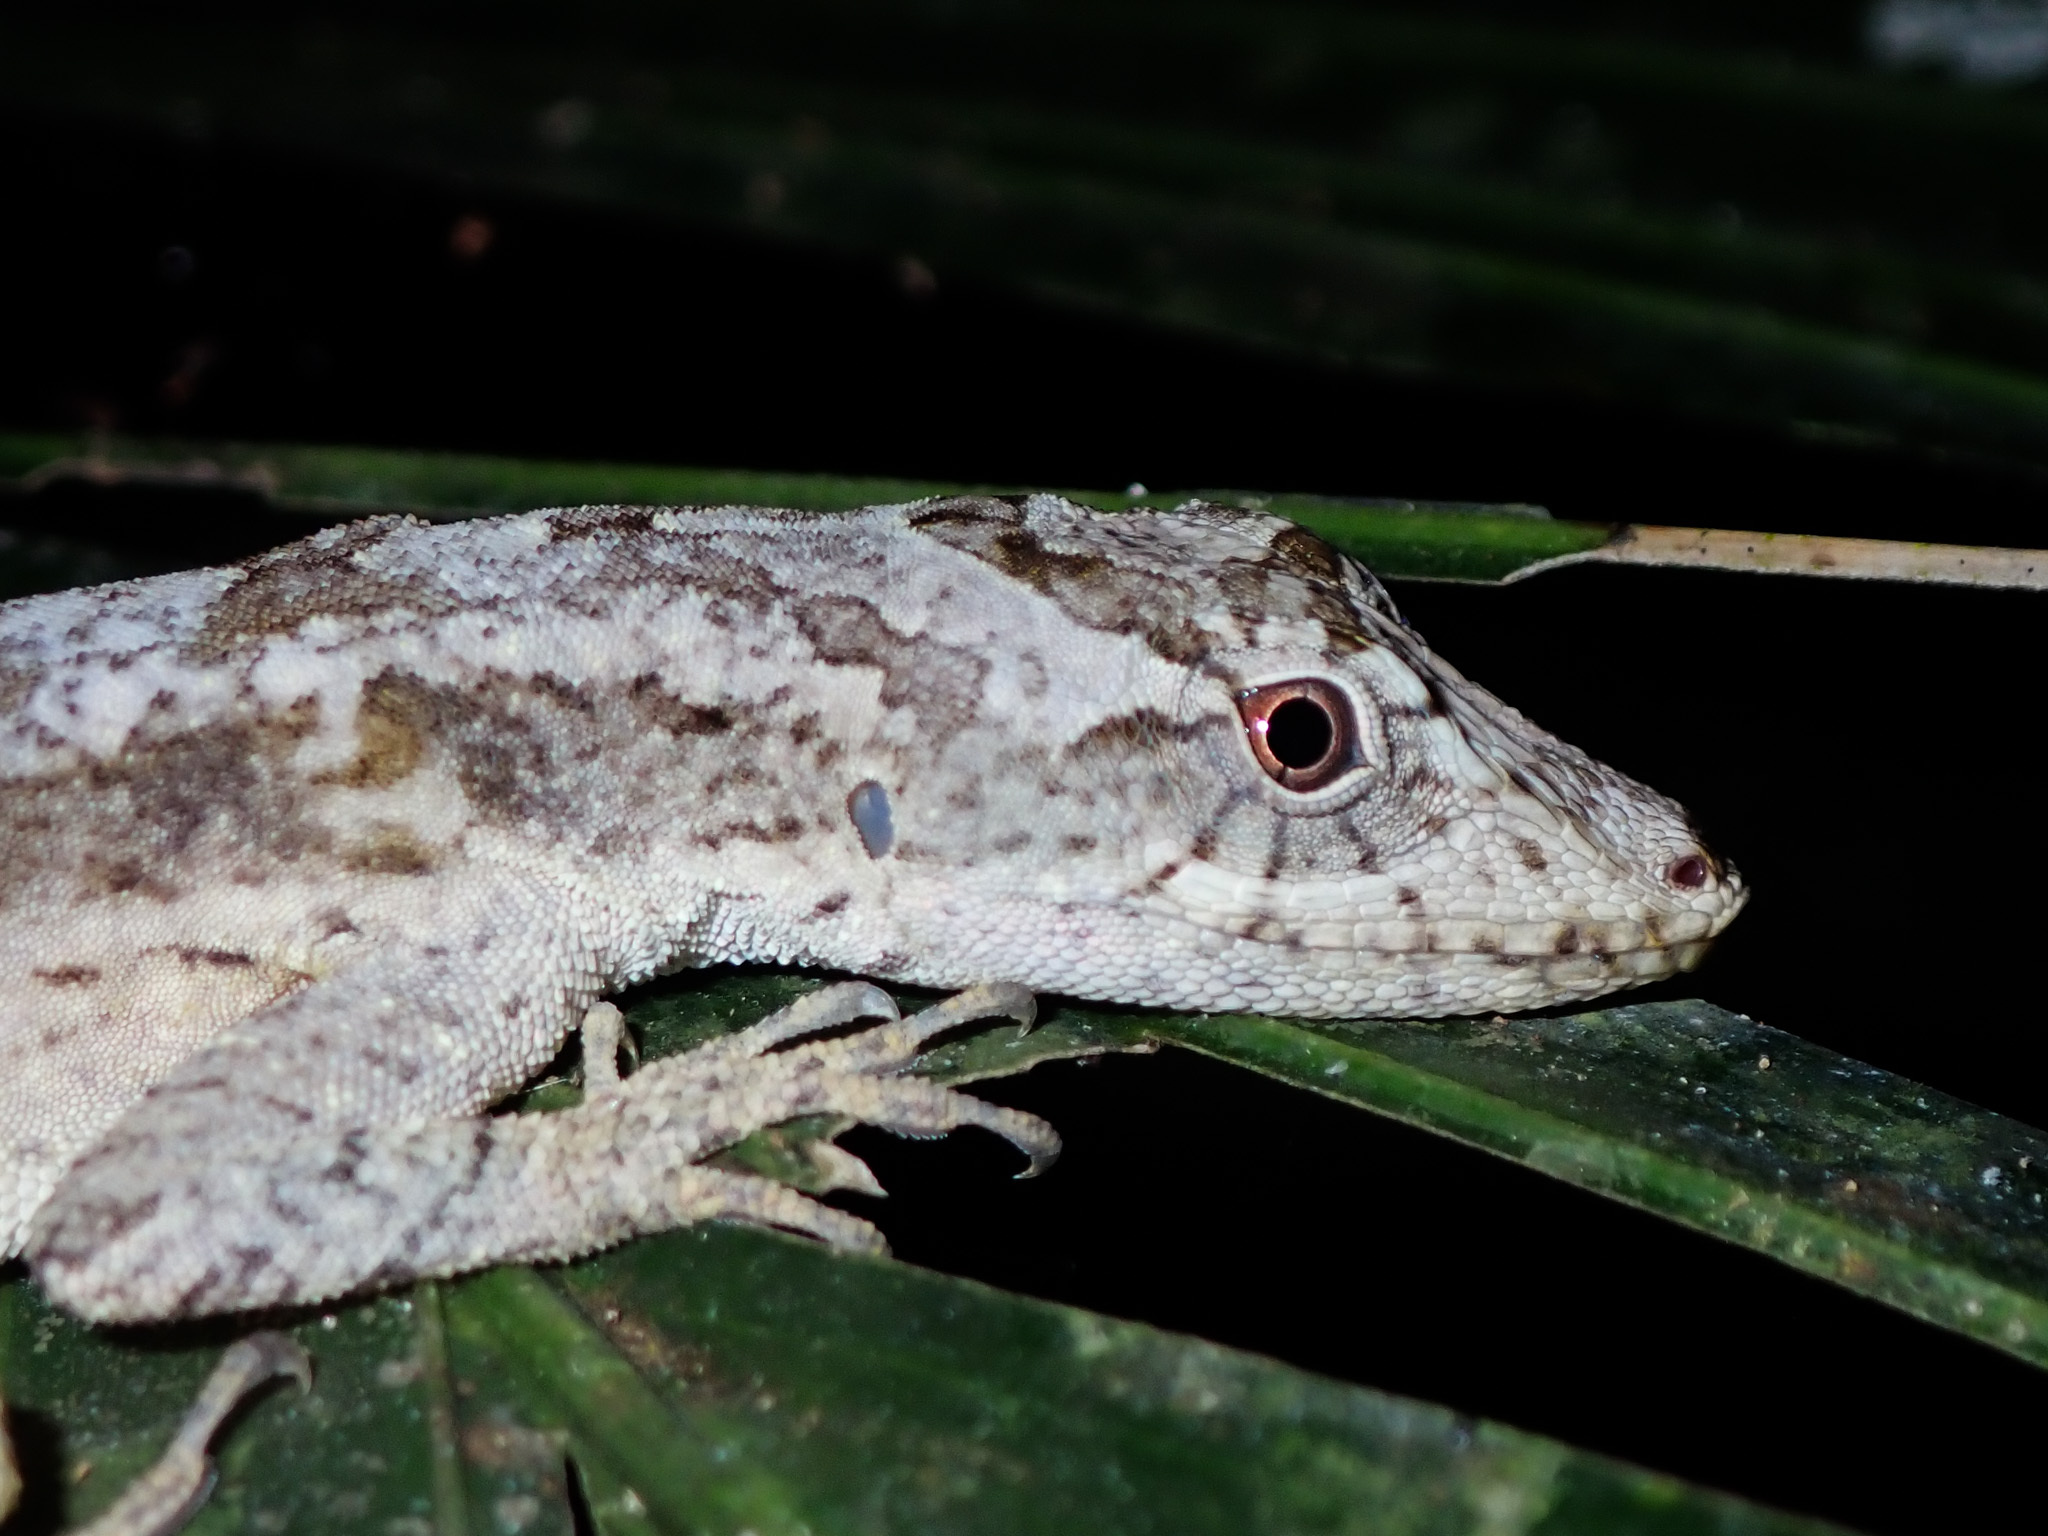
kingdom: Animalia
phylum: Chordata
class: Squamata
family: Dactyloidae
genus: Anolis
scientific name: Anolis lemurinus
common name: Ghost anole
